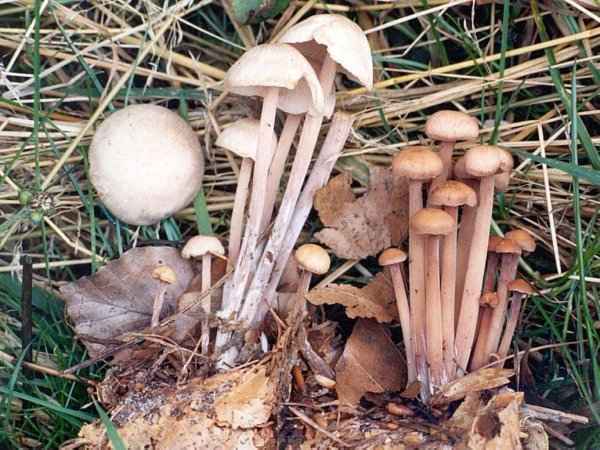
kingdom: Fungi
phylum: Basidiomycota
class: Agaricomycetes
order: Agaricales
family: Omphalotaceae
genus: Collybiopsis
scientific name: Collybiopsis confluens
